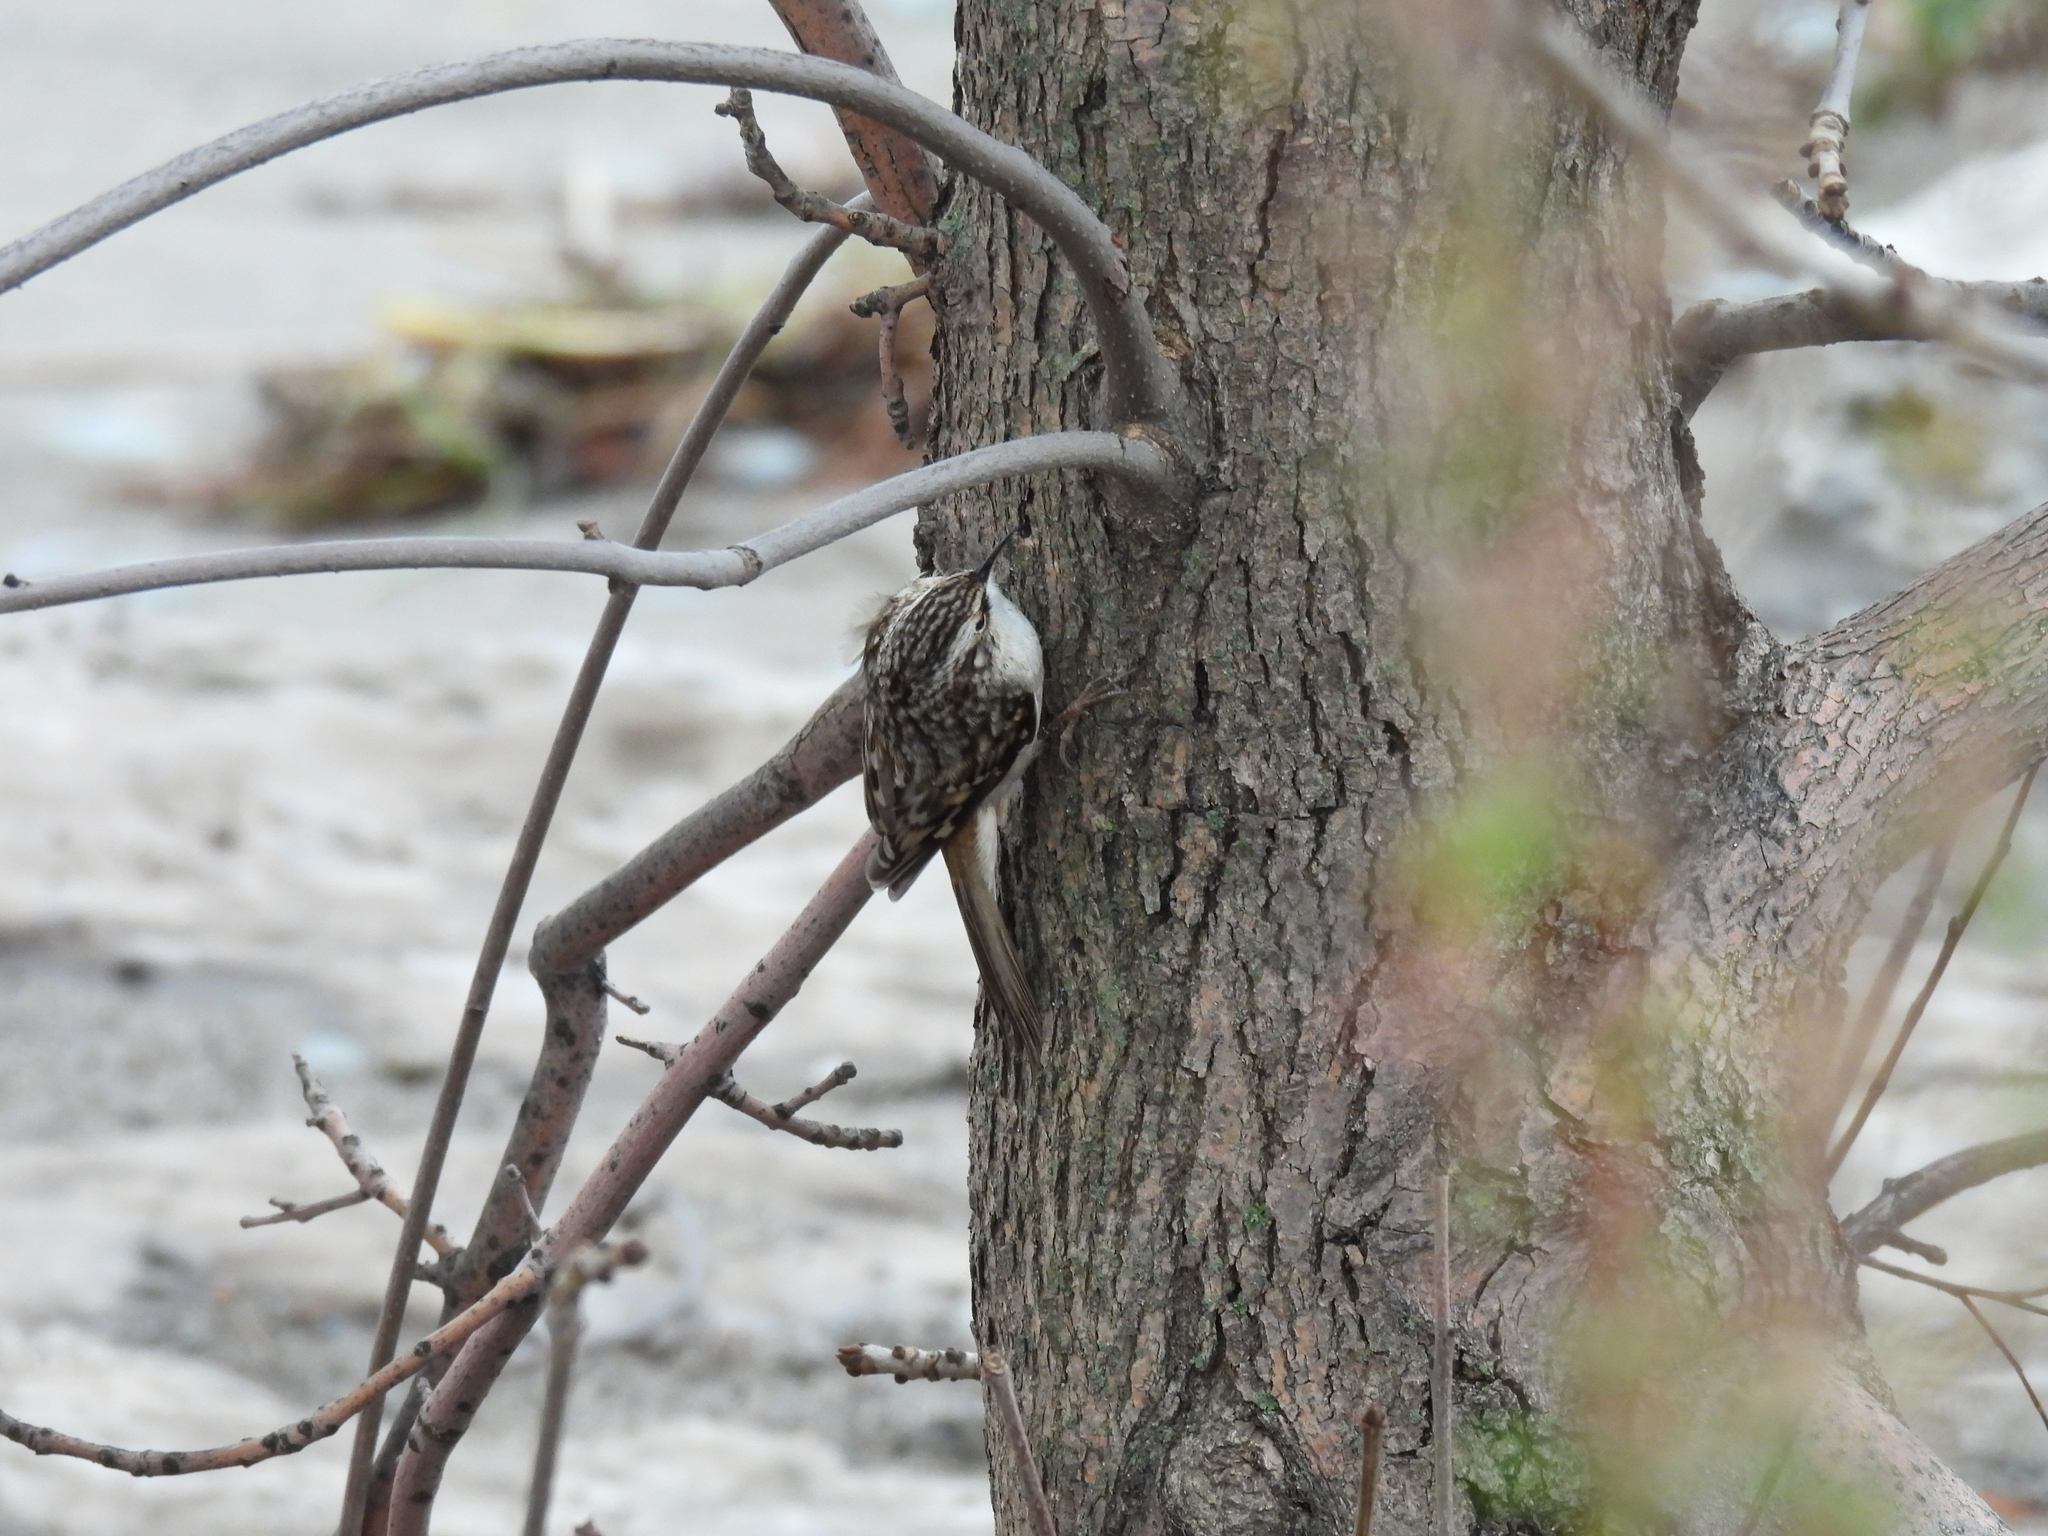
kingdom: Animalia
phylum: Chordata
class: Aves
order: Passeriformes
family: Certhiidae
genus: Certhia
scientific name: Certhia americana
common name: Brown creeper
